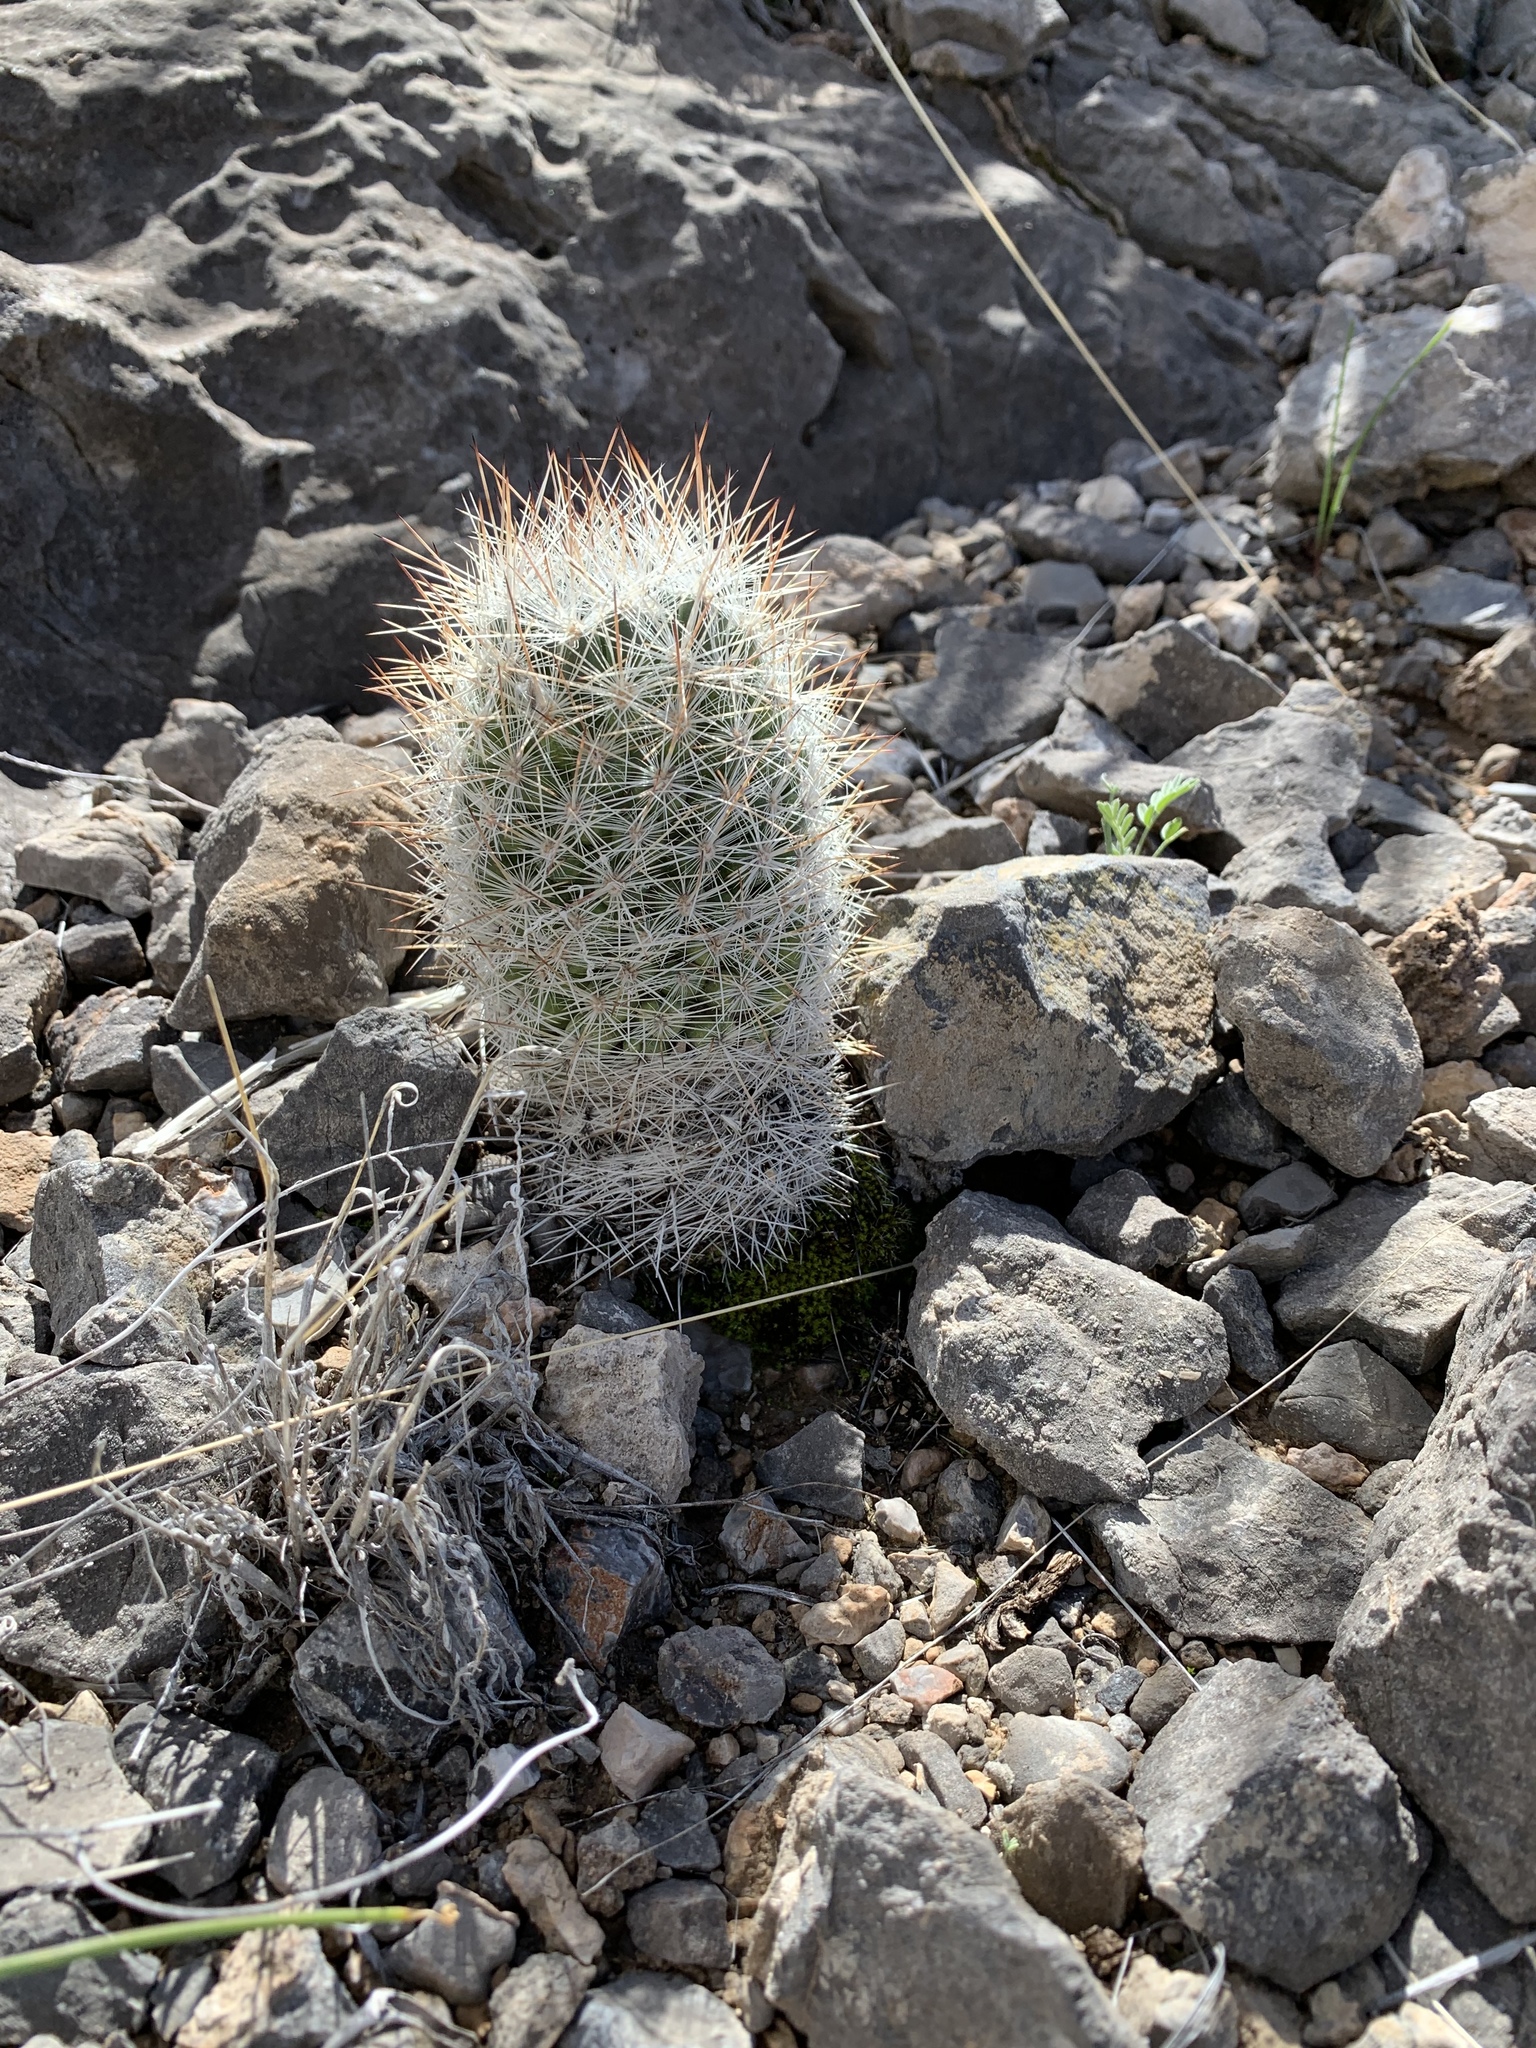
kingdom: Plantae
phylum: Tracheophyta
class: Magnoliopsida
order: Caryophyllales
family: Cactaceae
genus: Pelecyphora
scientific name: Pelecyphora sneedii
